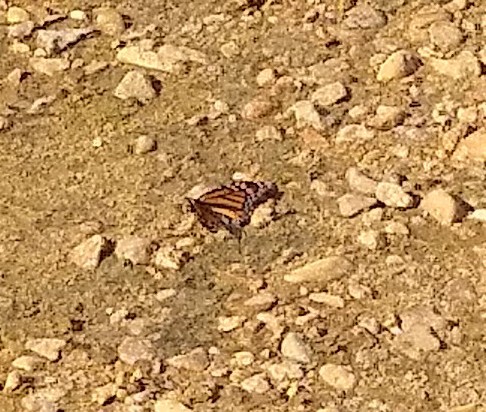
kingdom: Animalia
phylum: Arthropoda
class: Insecta
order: Lepidoptera
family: Nymphalidae
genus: Danaus
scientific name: Danaus plexippus
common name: Monarch
